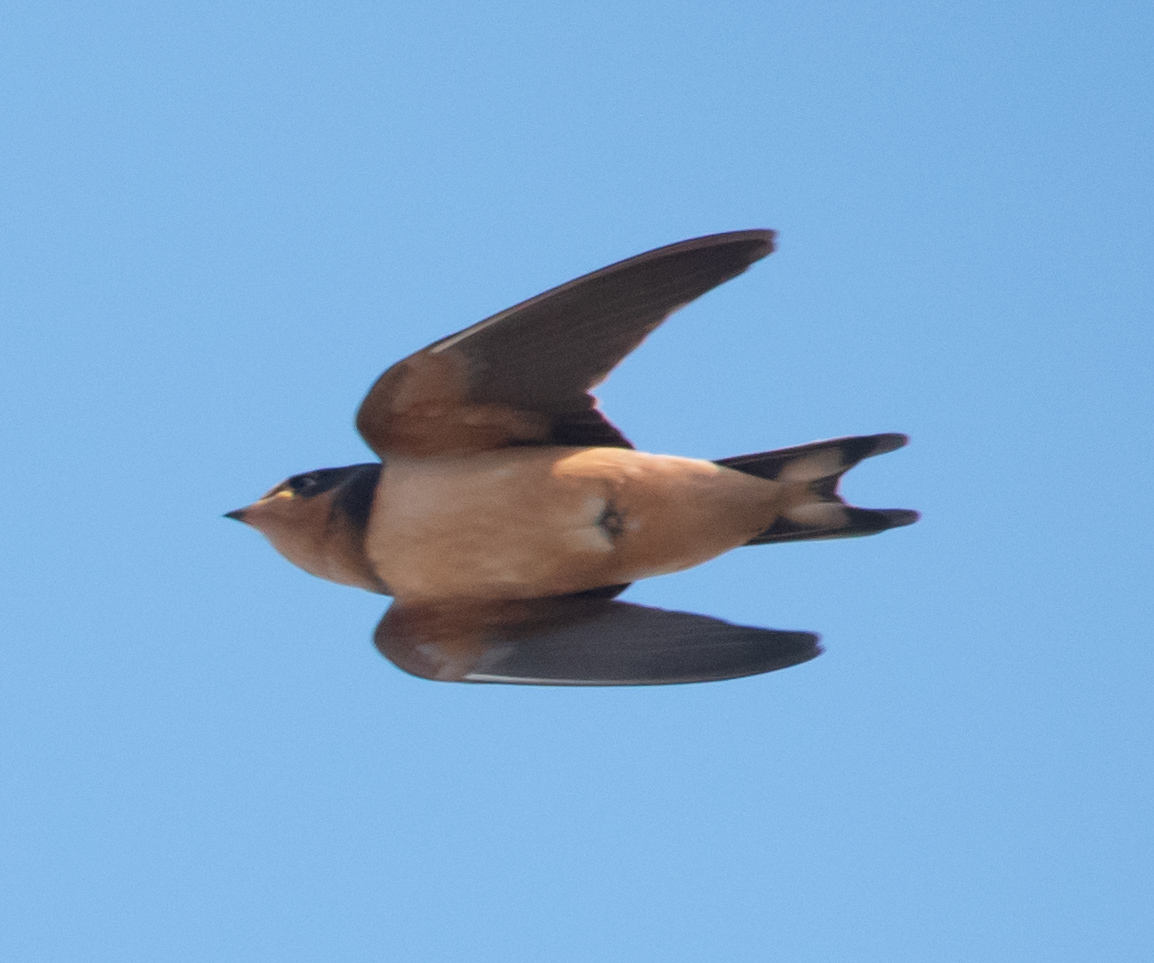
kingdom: Animalia
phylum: Chordata
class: Aves
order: Passeriformes
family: Hirundinidae
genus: Hirundo
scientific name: Hirundo rustica
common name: Barn swallow
